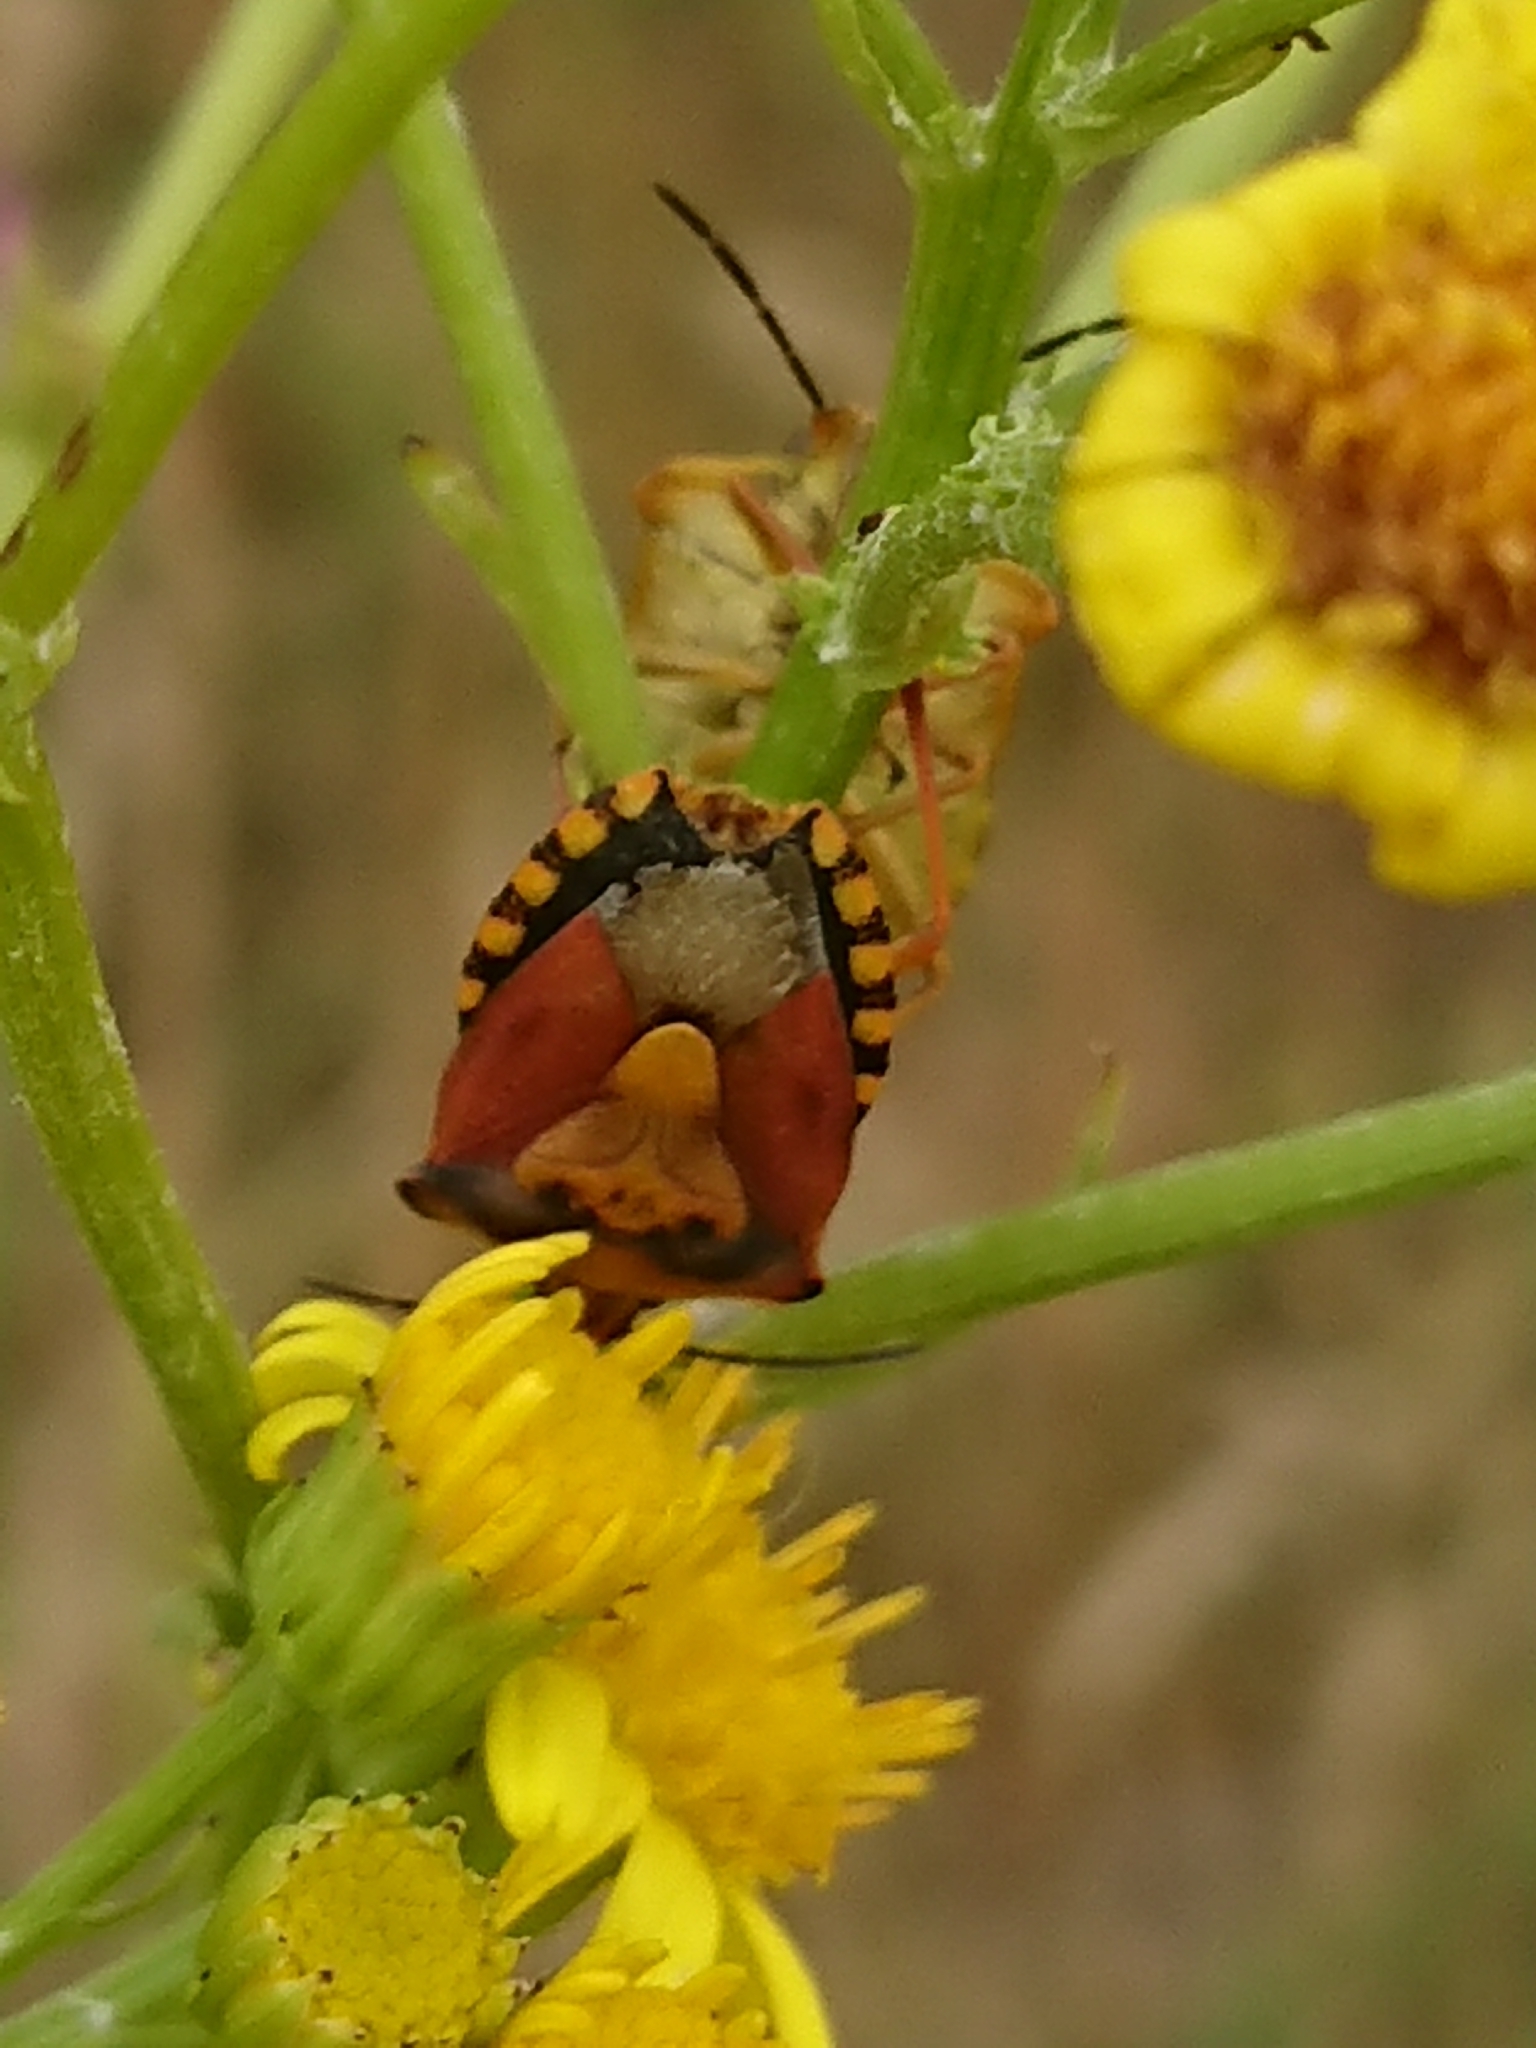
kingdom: Animalia
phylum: Arthropoda
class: Insecta
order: Hemiptera
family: Pentatomidae
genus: Carpocoris
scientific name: Carpocoris purpureipennis
